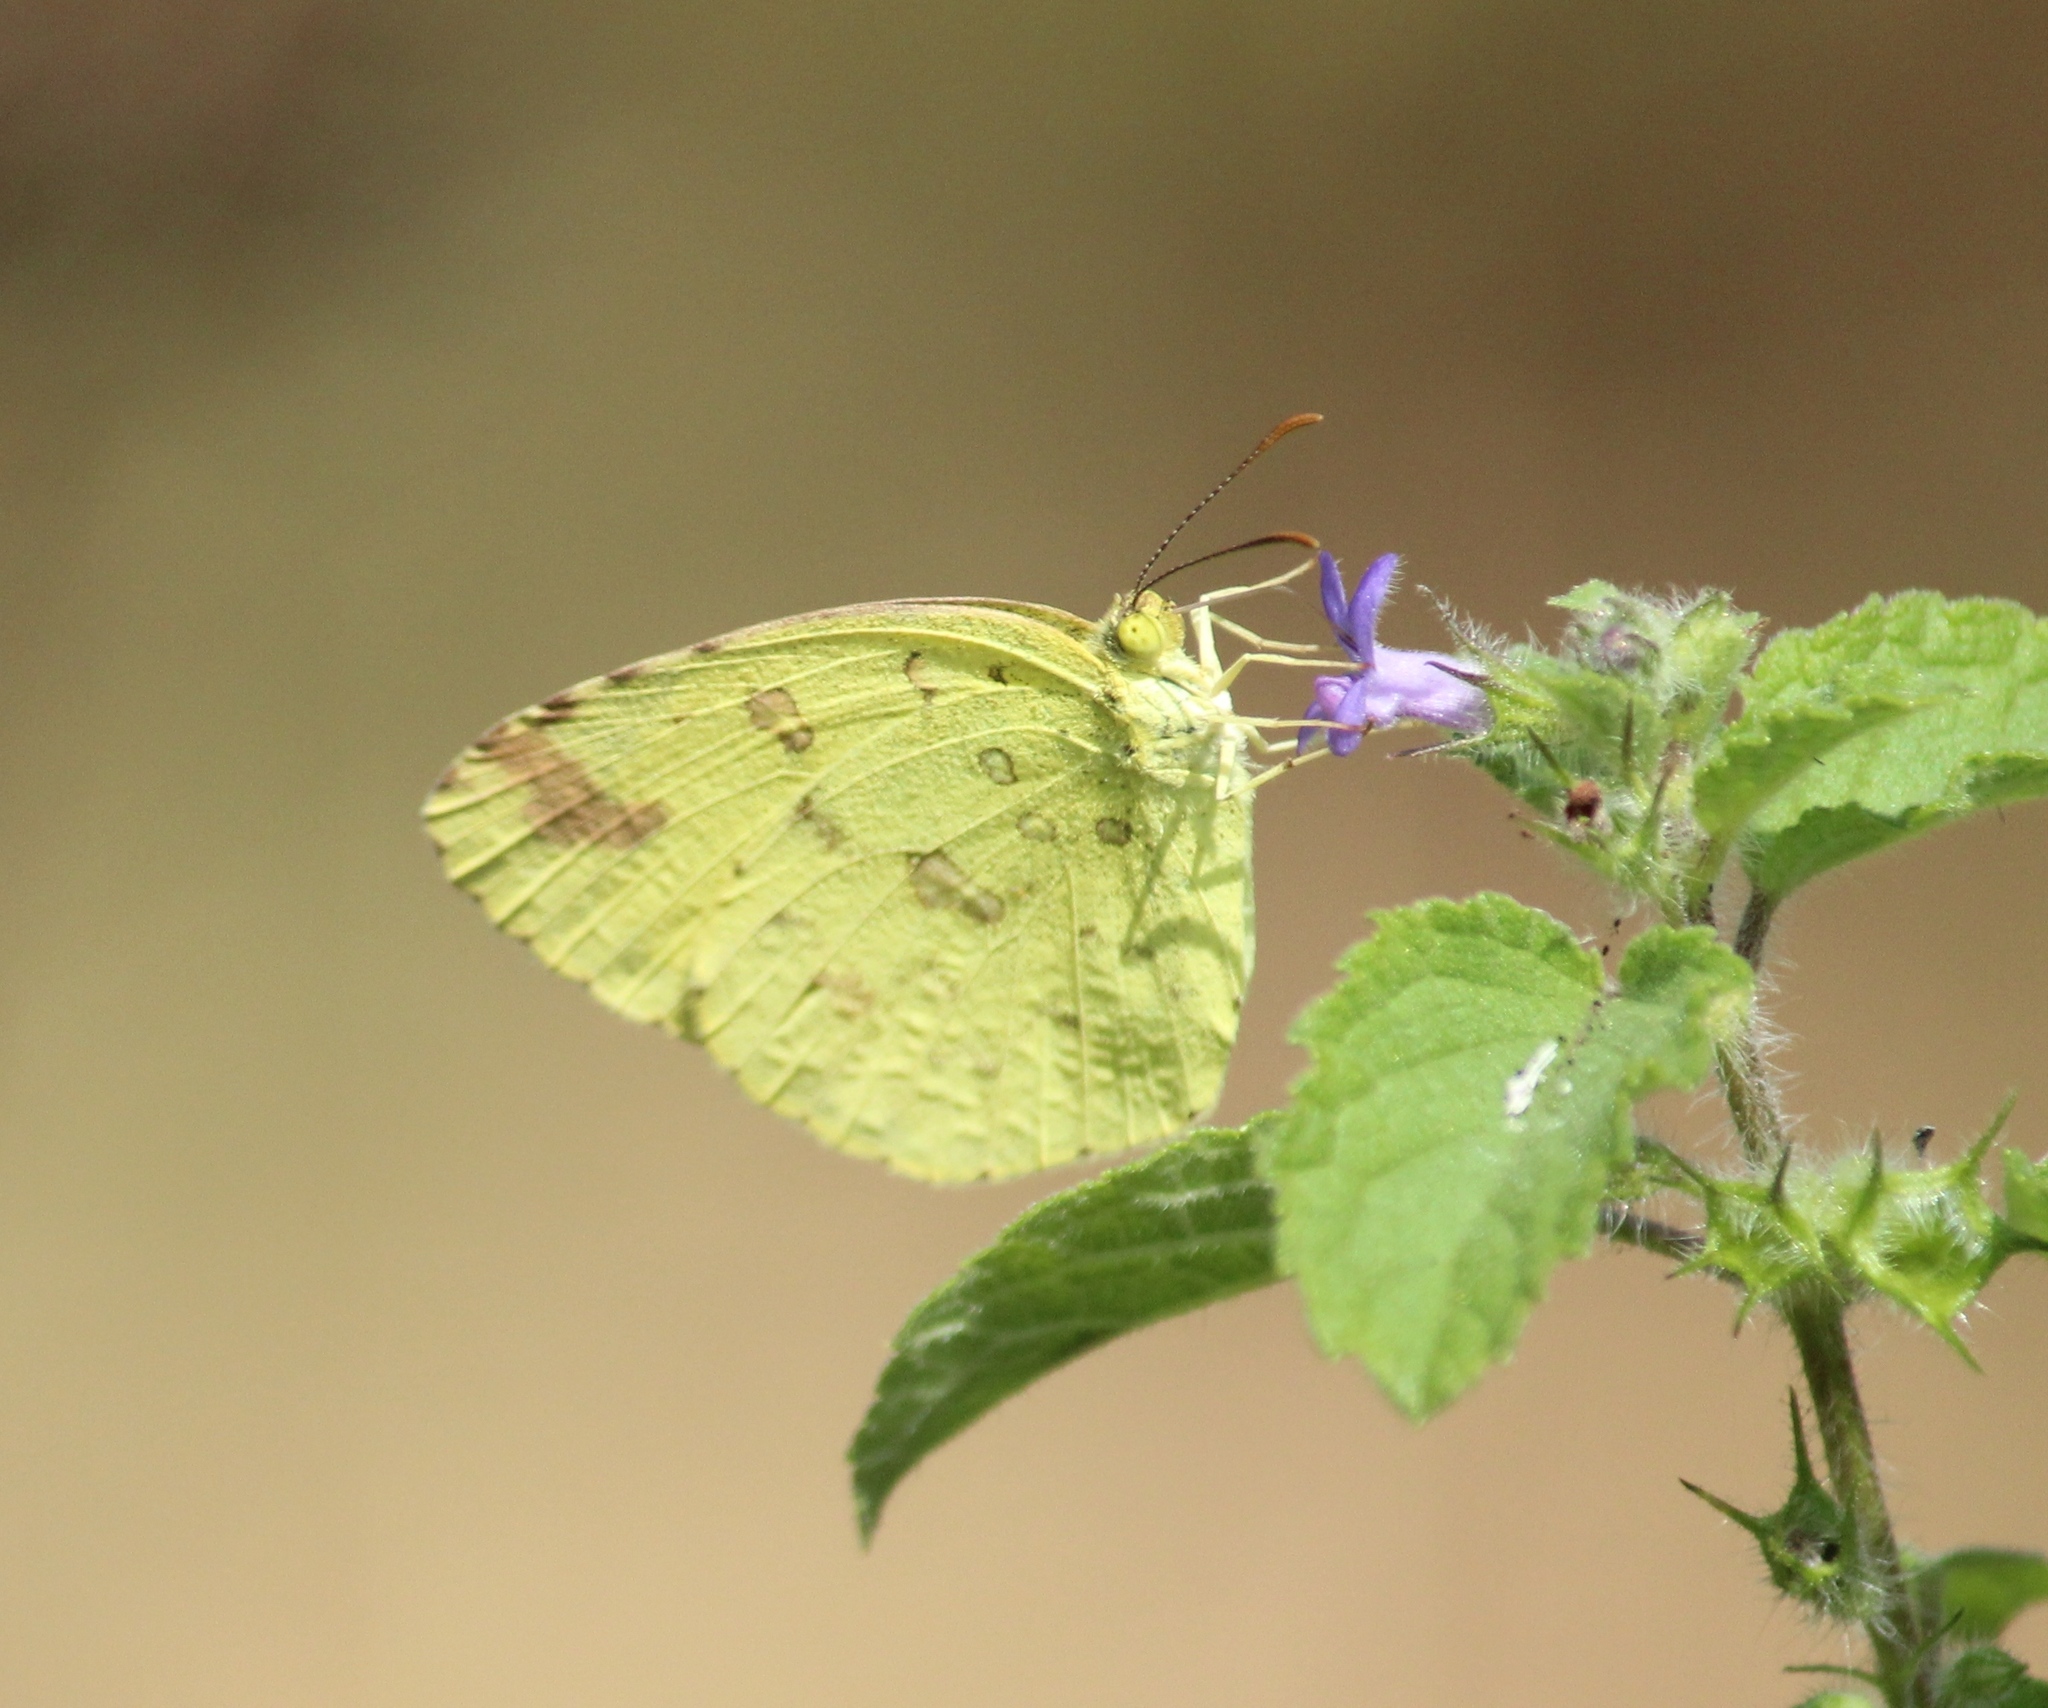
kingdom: Animalia
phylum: Arthropoda
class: Insecta
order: Lepidoptera
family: Pieridae
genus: Eurema
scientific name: Eurema hecabe
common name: Pale grass yellow
